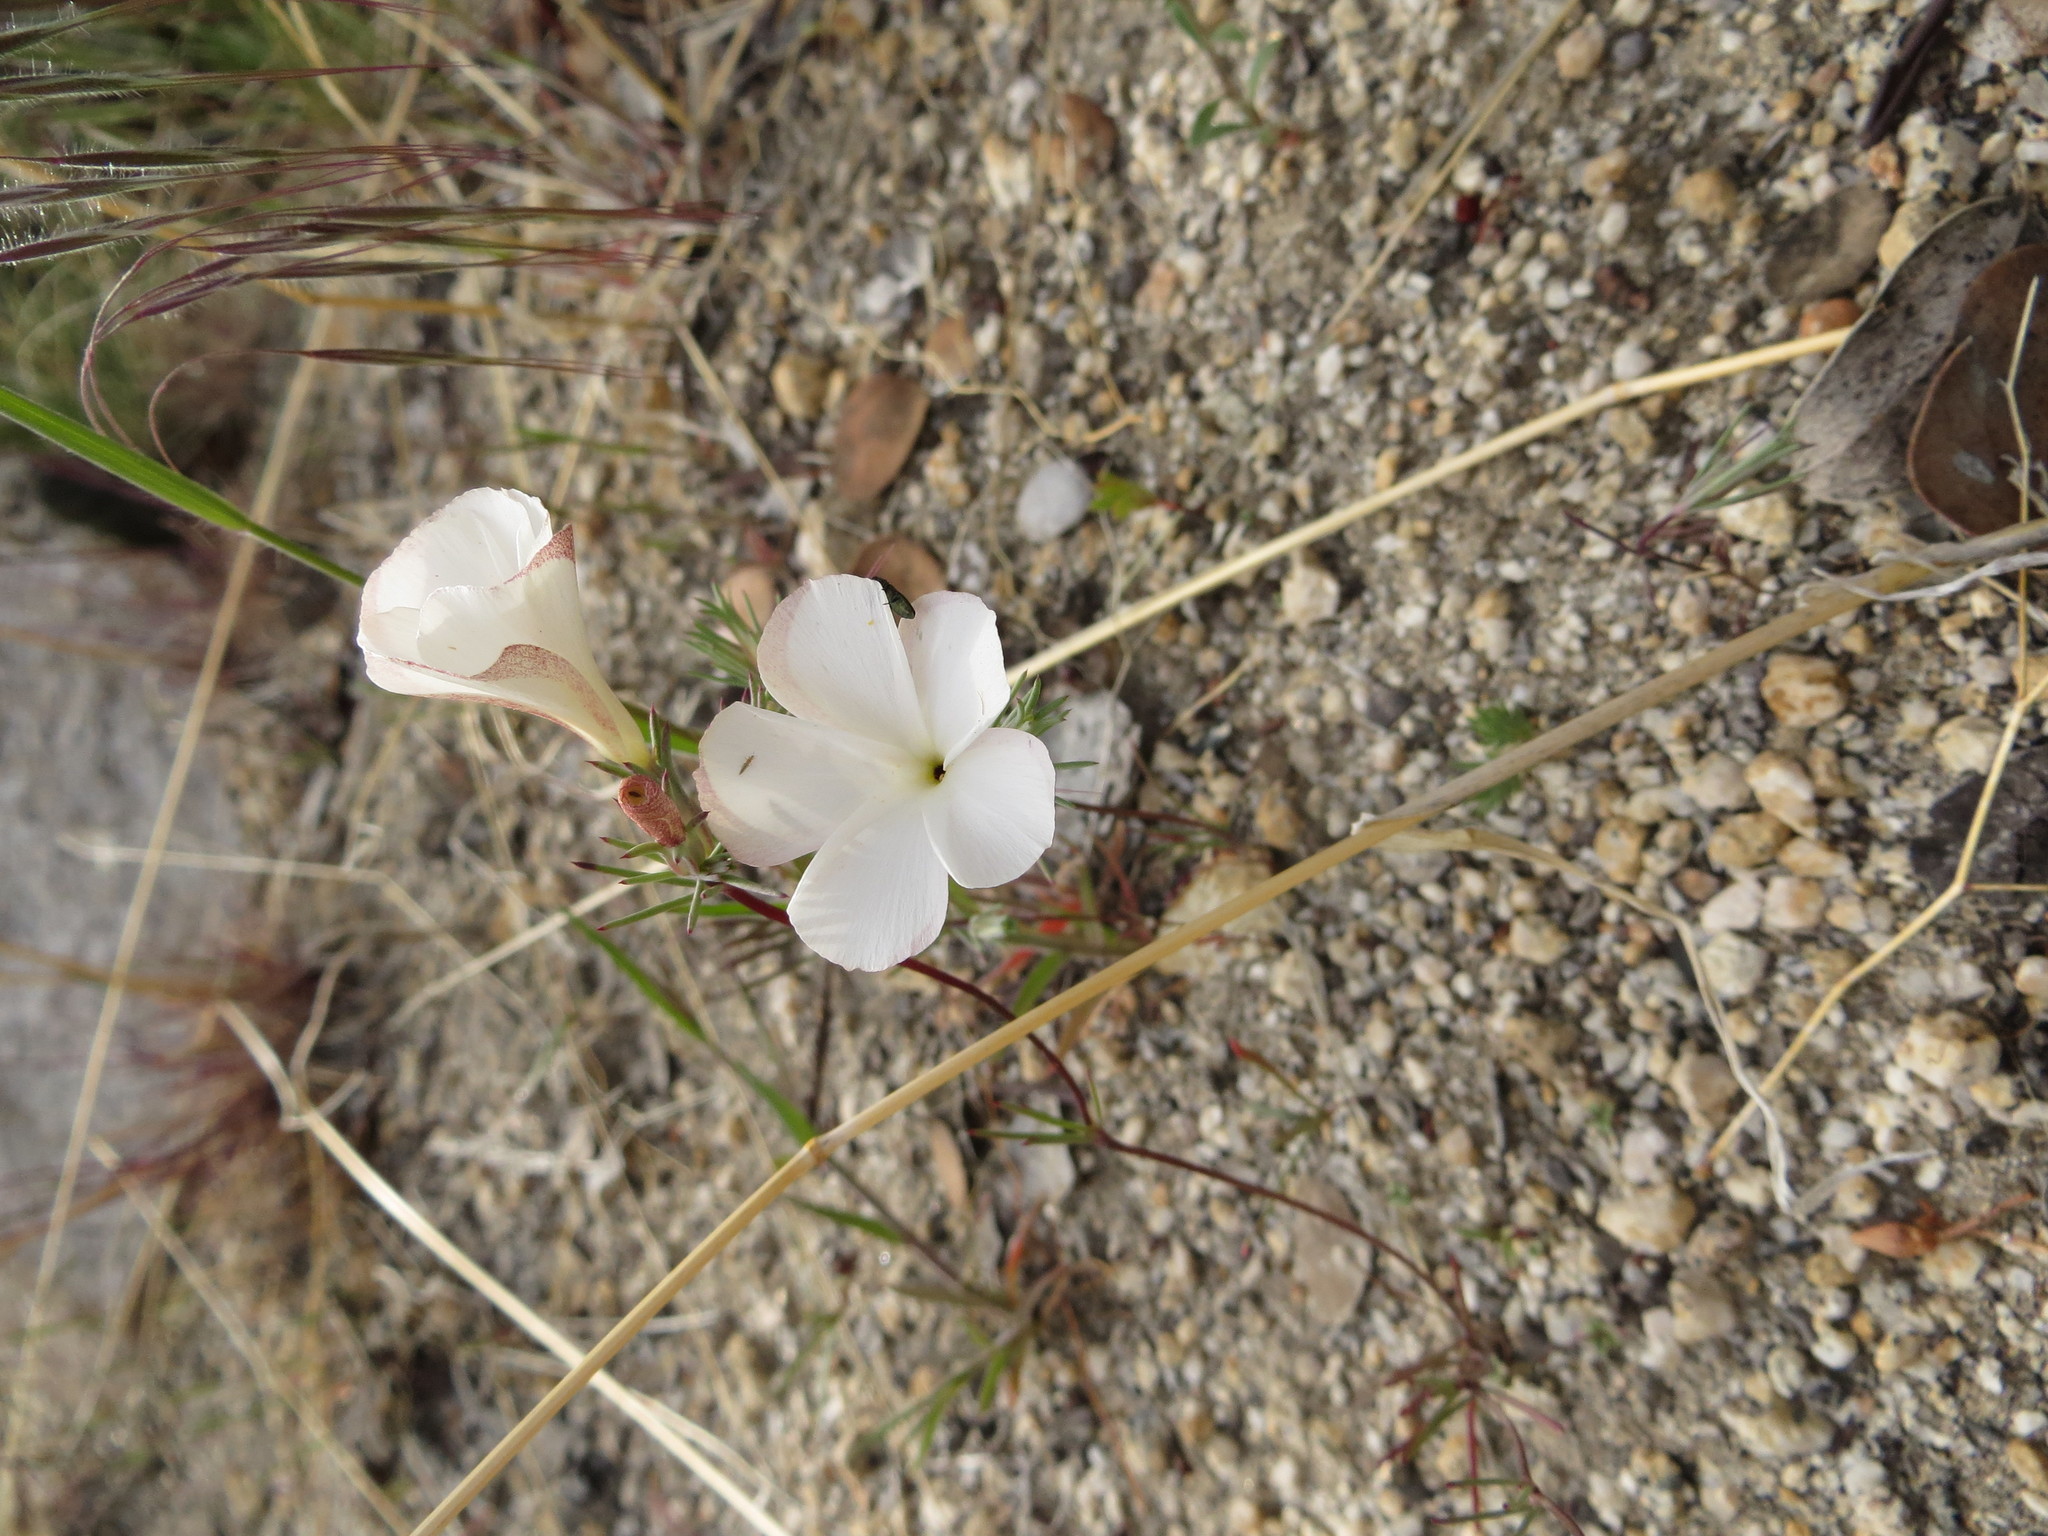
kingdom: Plantae
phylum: Tracheophyta
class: Magnoliopsida
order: Ericales
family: Polemoniaceae
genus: Linanthus
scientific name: Linanthus dichotomus
